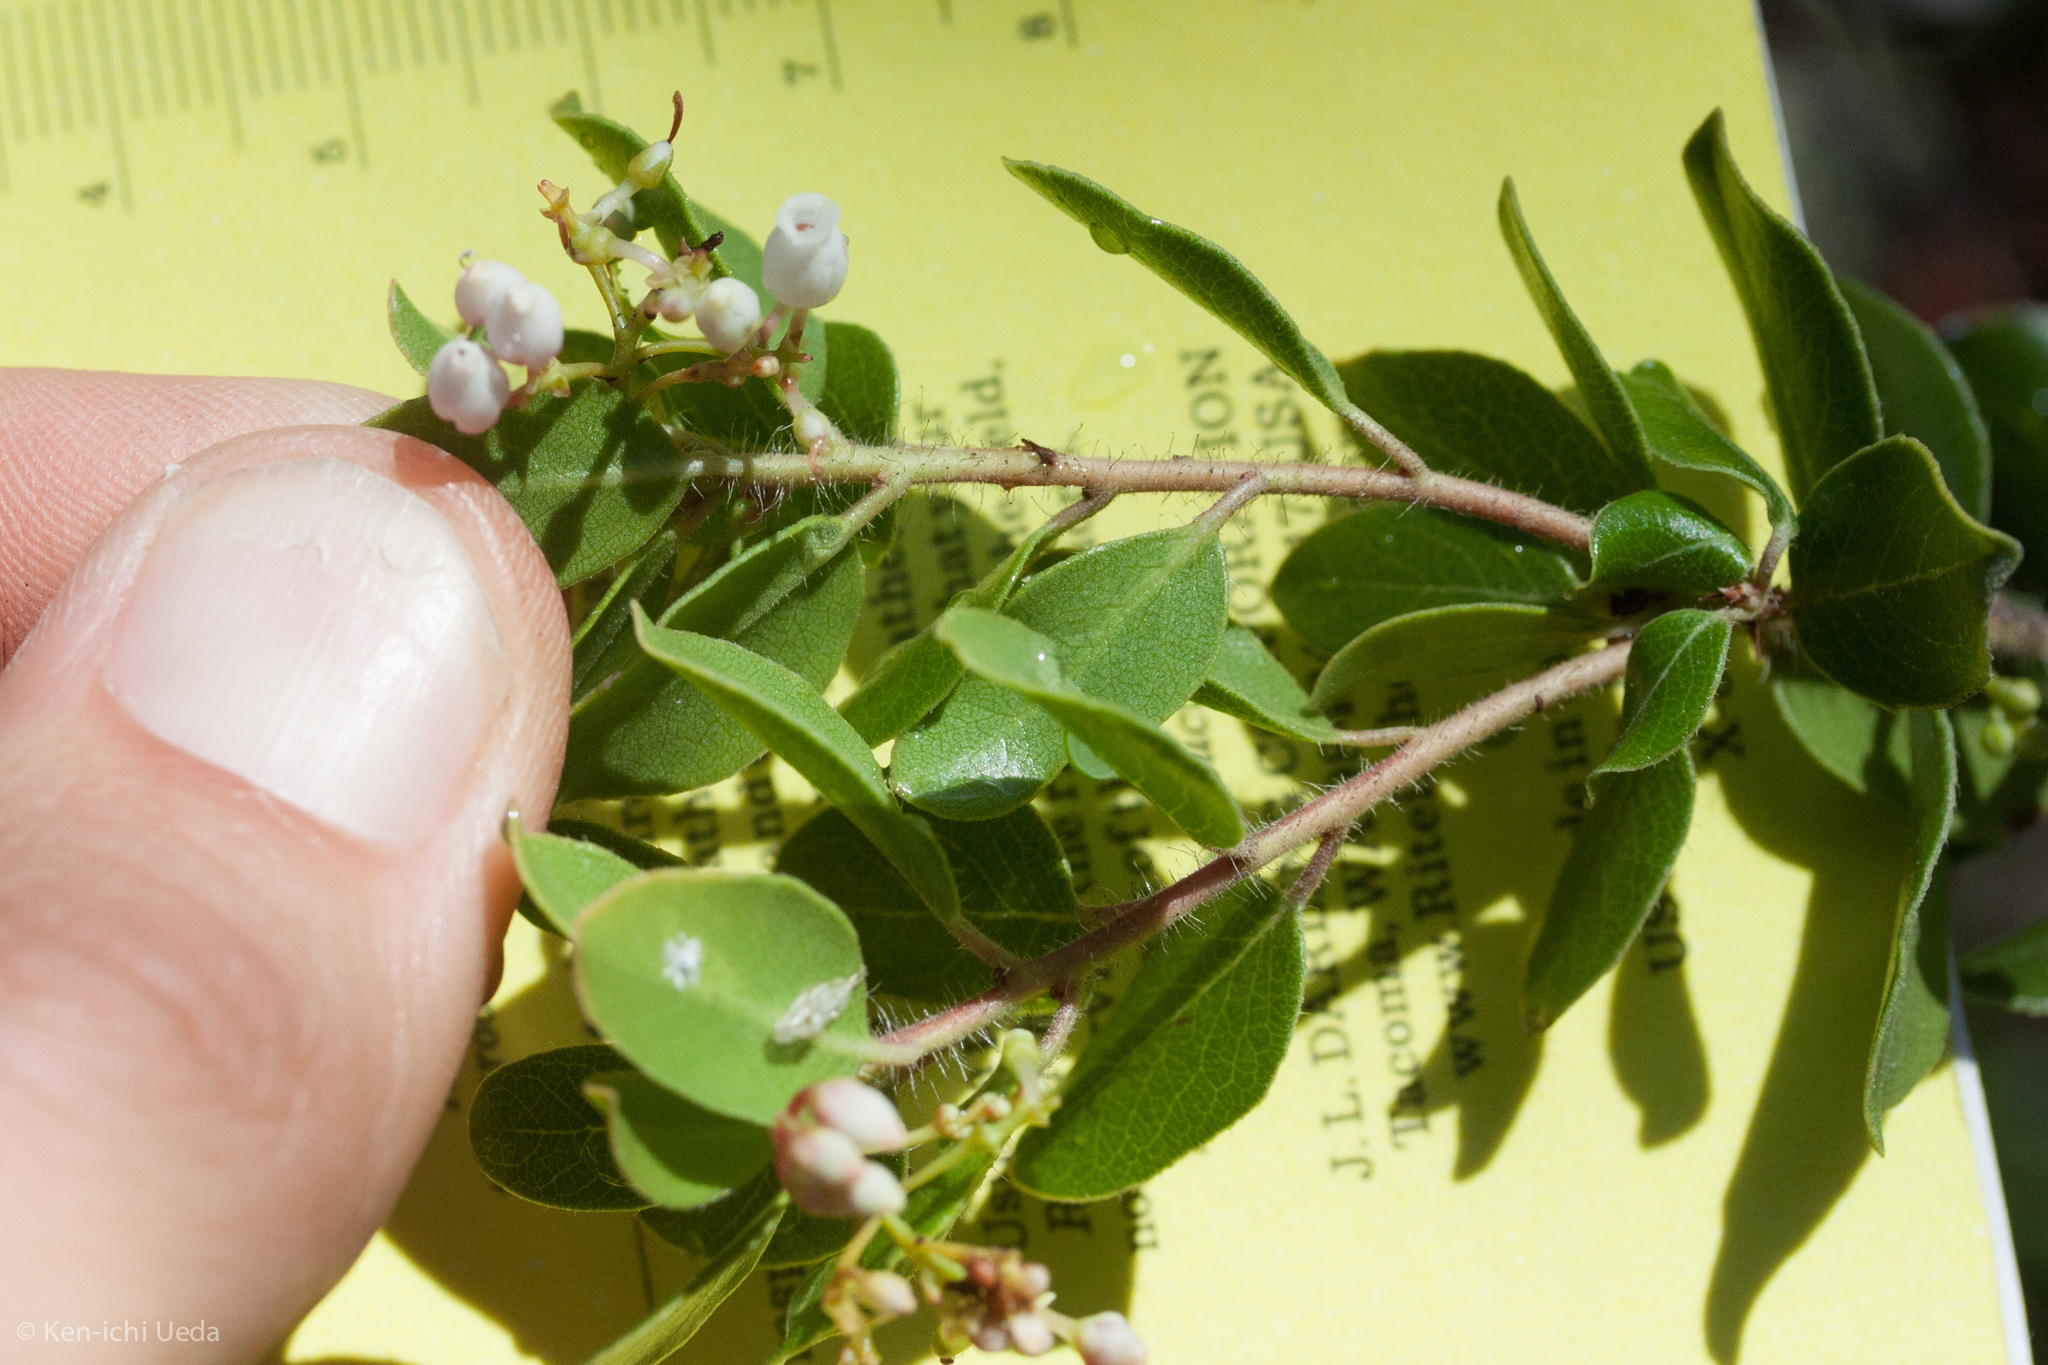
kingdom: Plantae
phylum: Tracheophyta
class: Magnoliopsida
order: Ericales
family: Ericaceae
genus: Arctostaphylos
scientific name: Arctostaphylos nummularia
